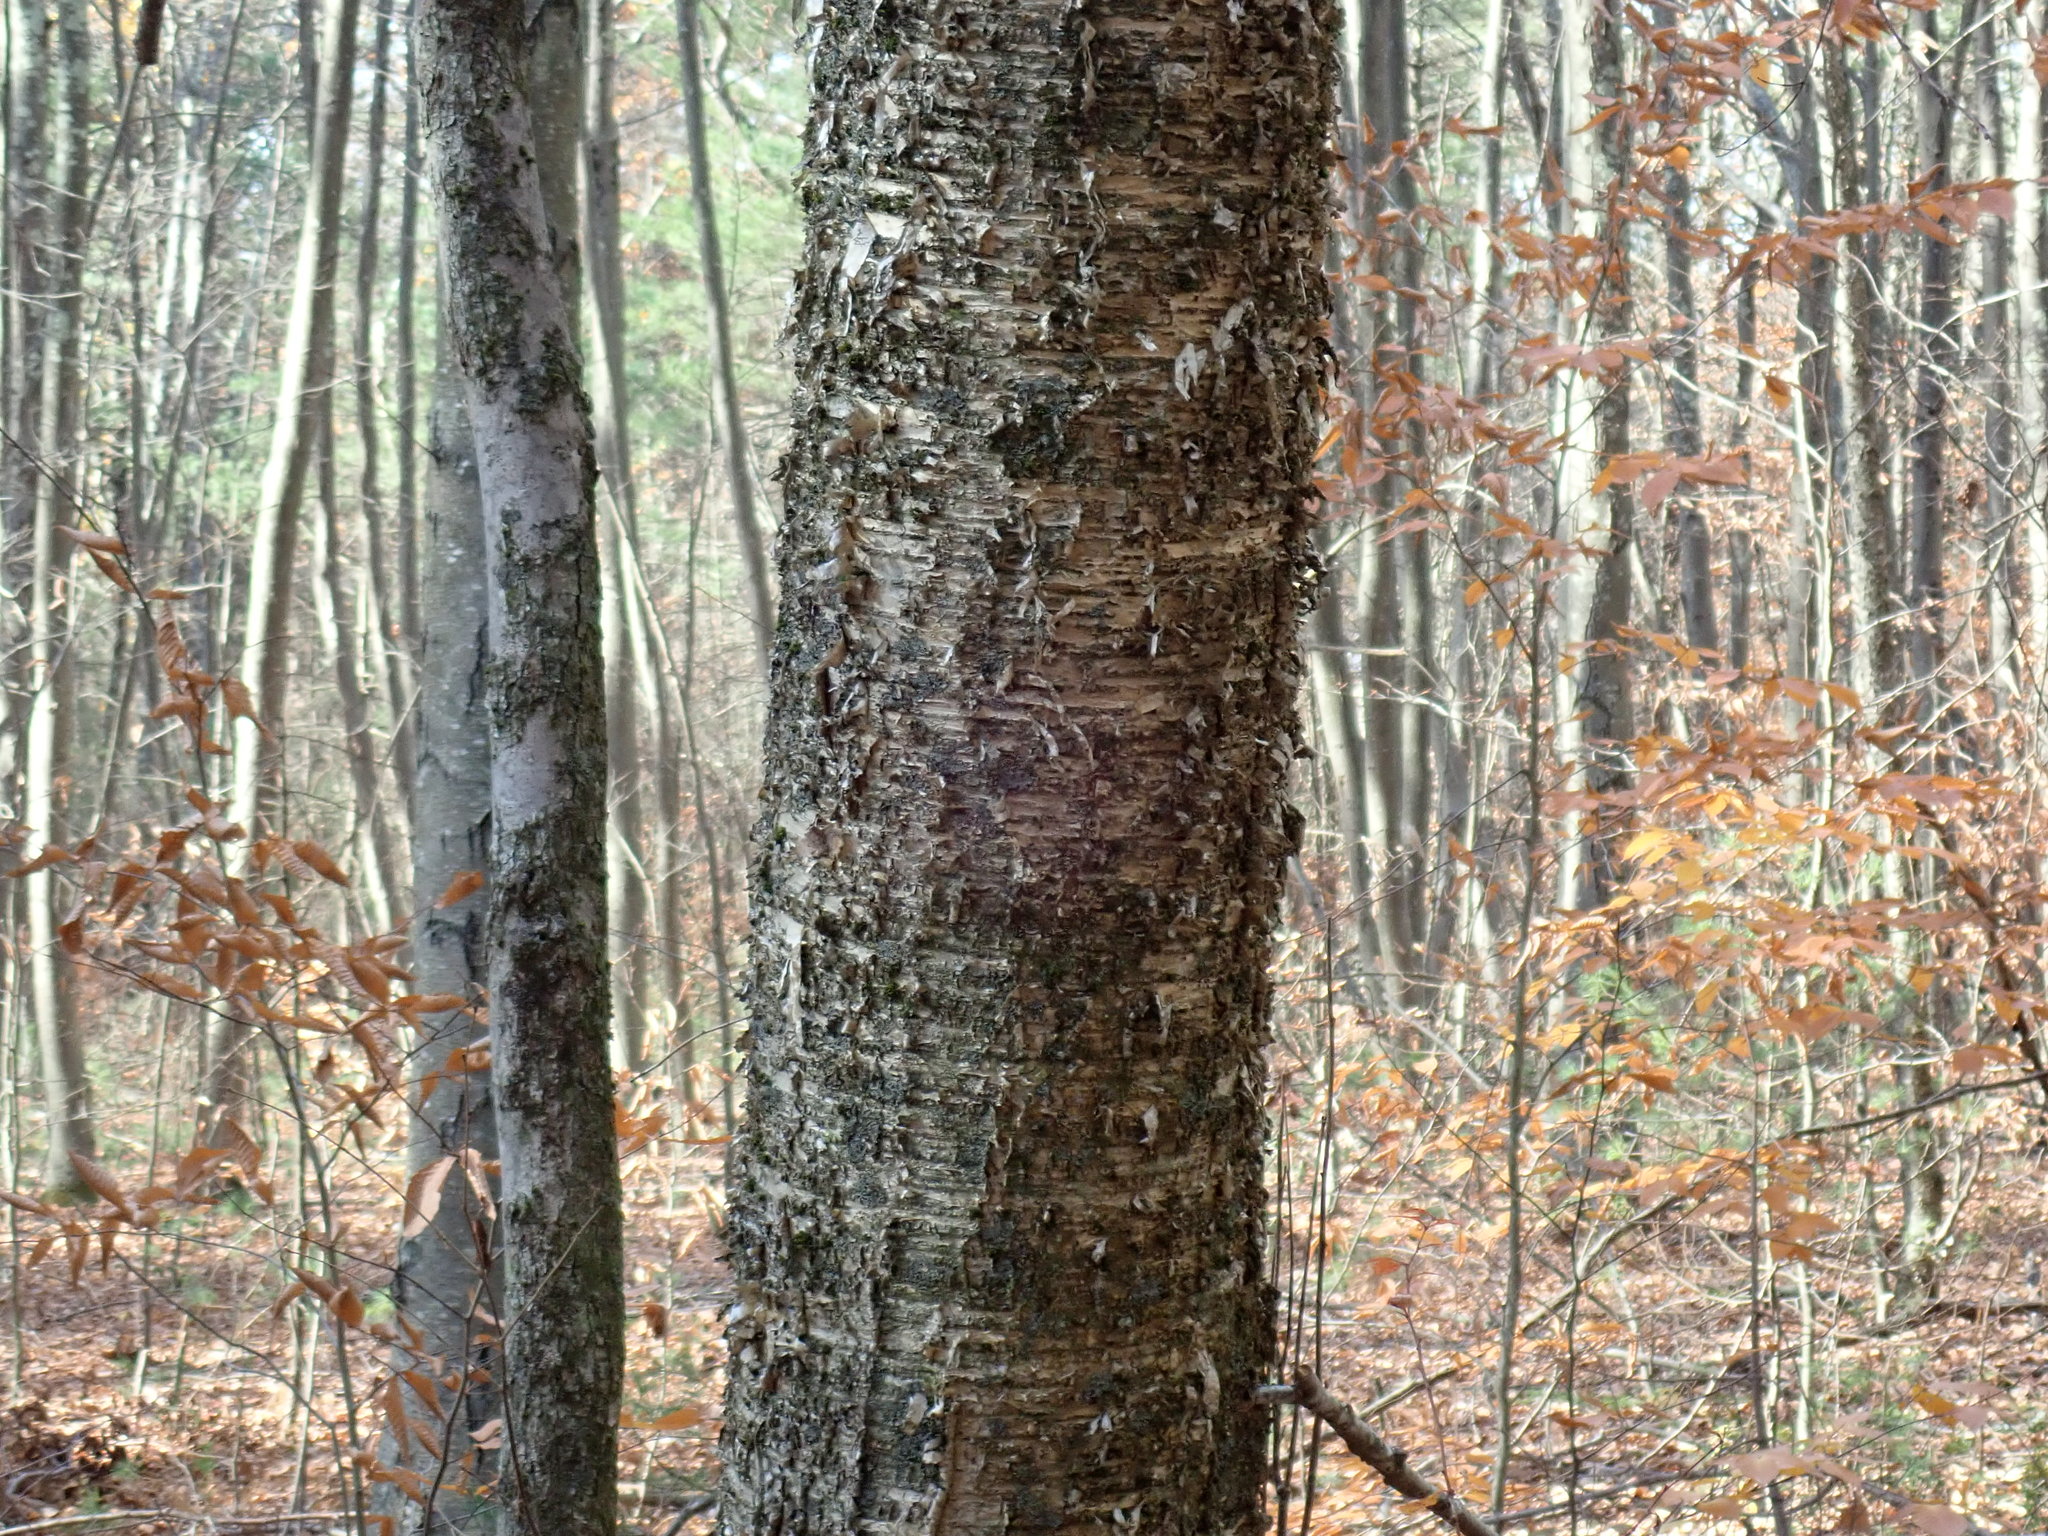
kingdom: Plantae
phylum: Tracheophyta
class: Magnoliopsida
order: Fagales
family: Betulaceae
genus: Betula
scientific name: Betula alleghaniensis
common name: Yellow birch
